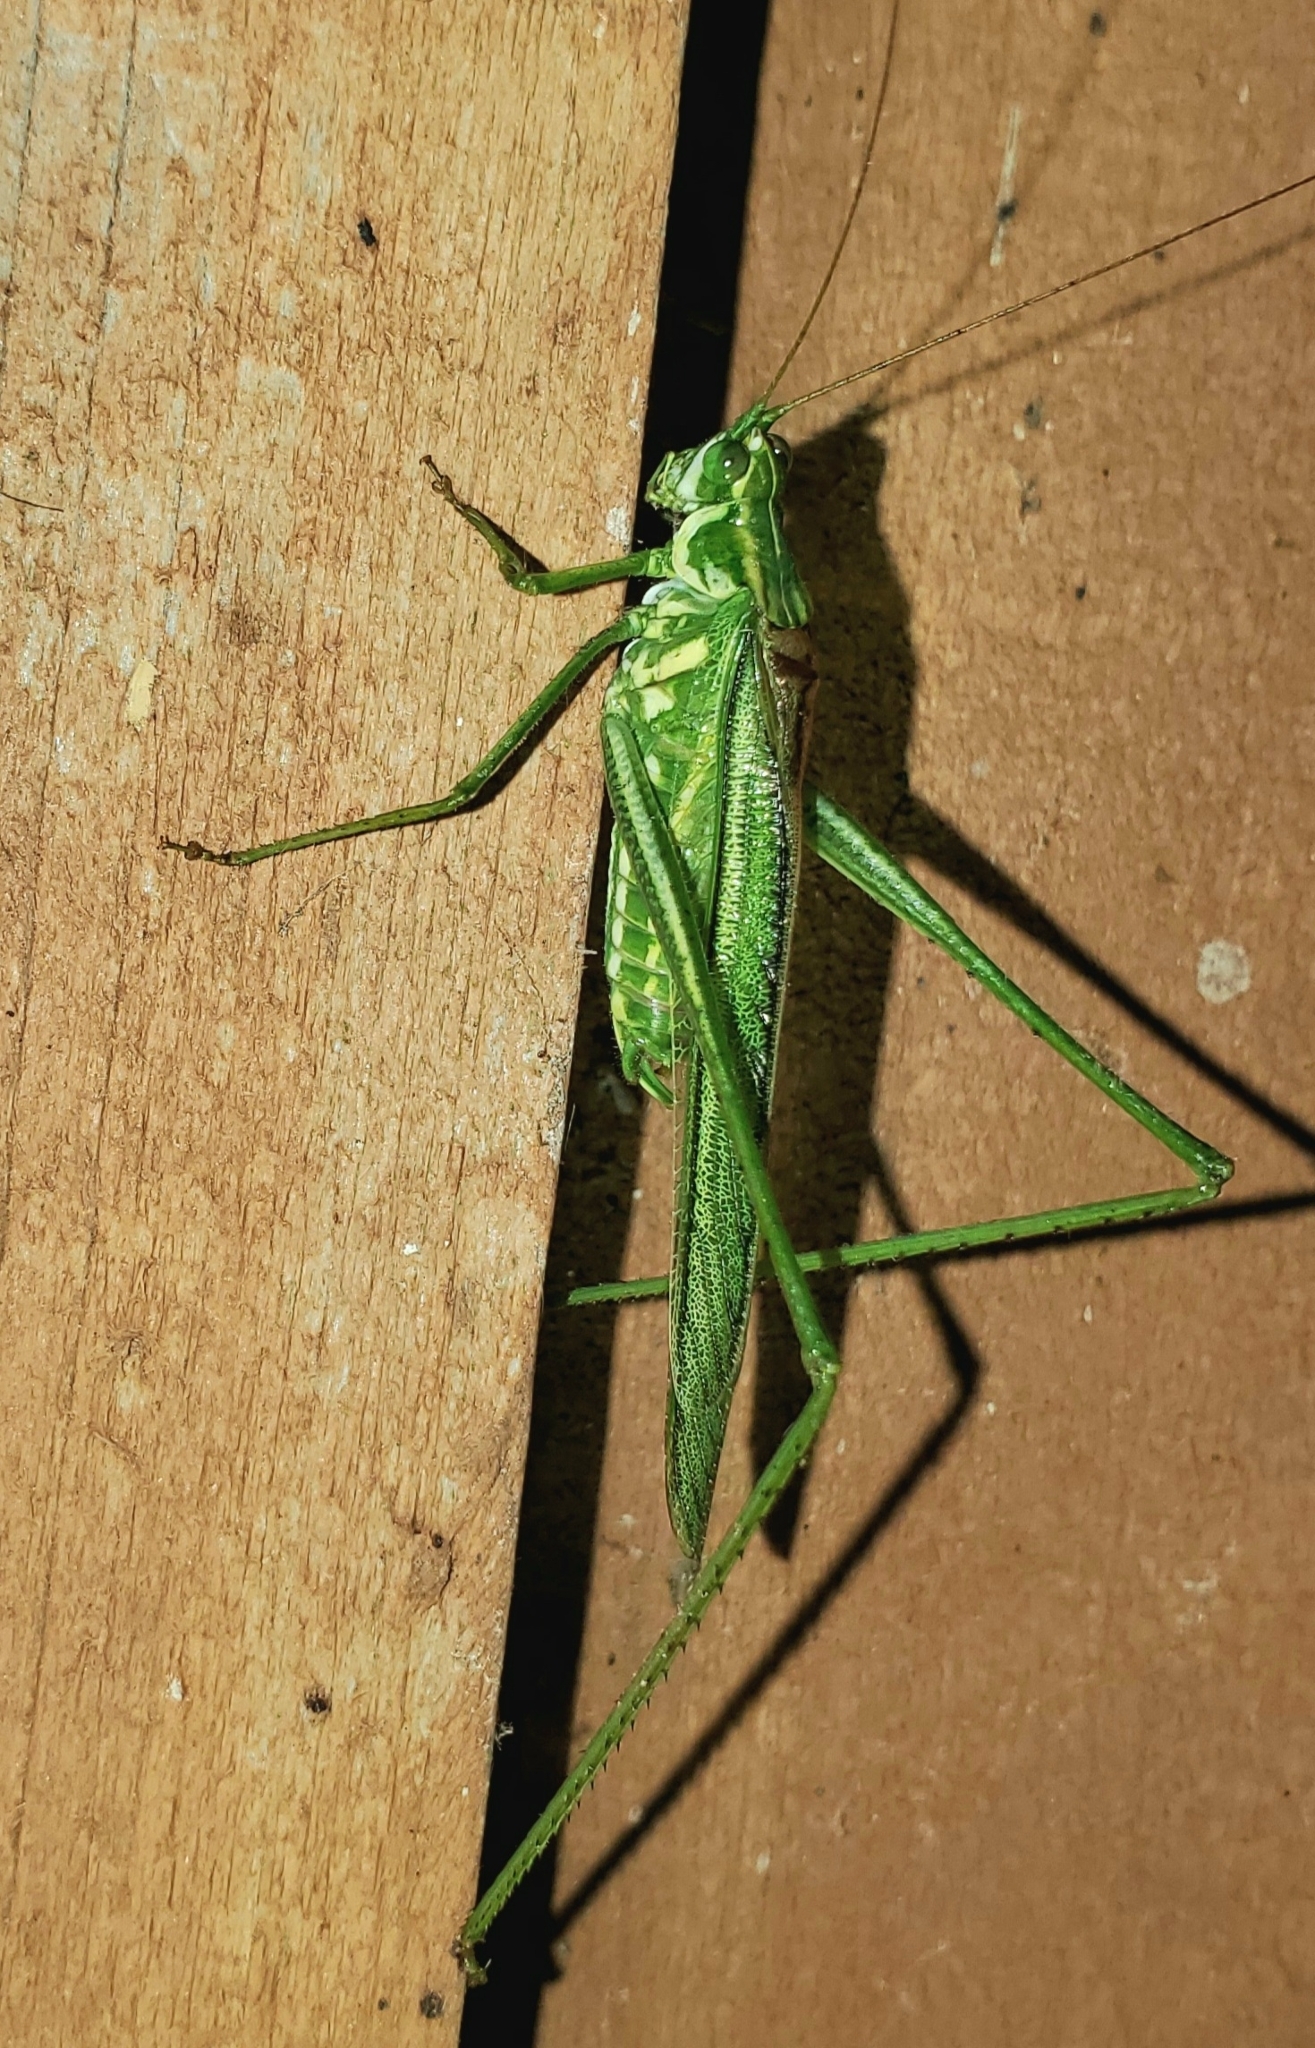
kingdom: Animalia
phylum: Arthropoda
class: Insecta
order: Orthoptera
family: Tettigoniidae
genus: Inscudderia
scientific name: Inscudderia walkeri
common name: Eastern cypress katydid
